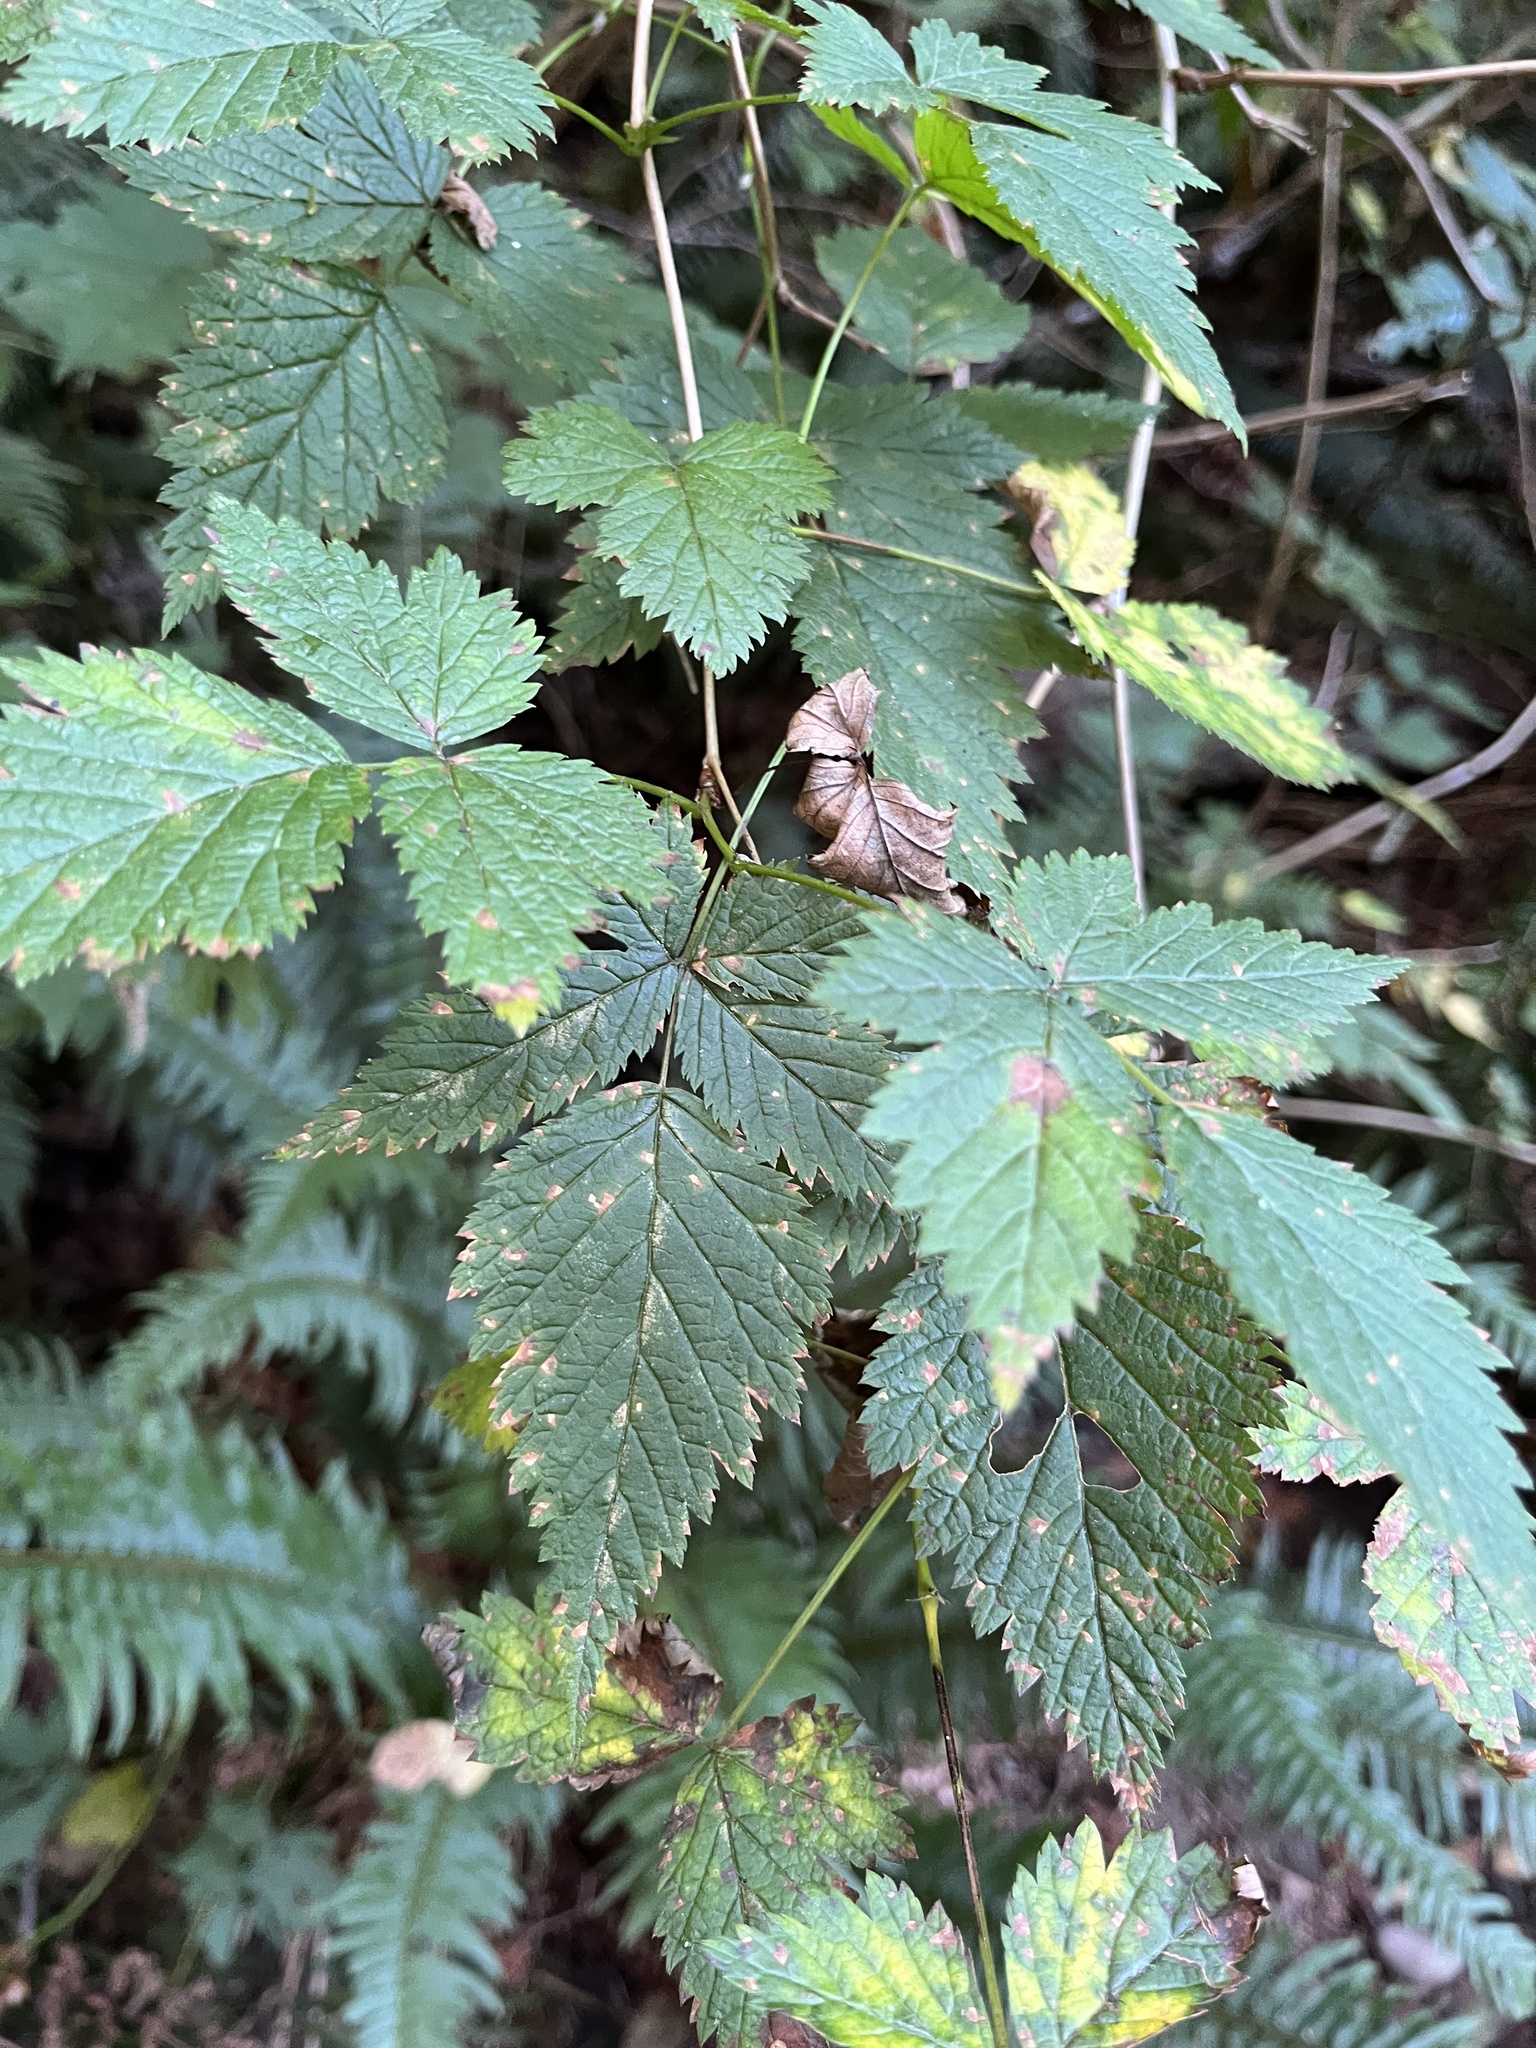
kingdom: Plantae
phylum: Tracheophyta
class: Magnoliopsida
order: Rosales
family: Rosaceae
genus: Rubus
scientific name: Rubus spectabilis
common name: Salmonberry
